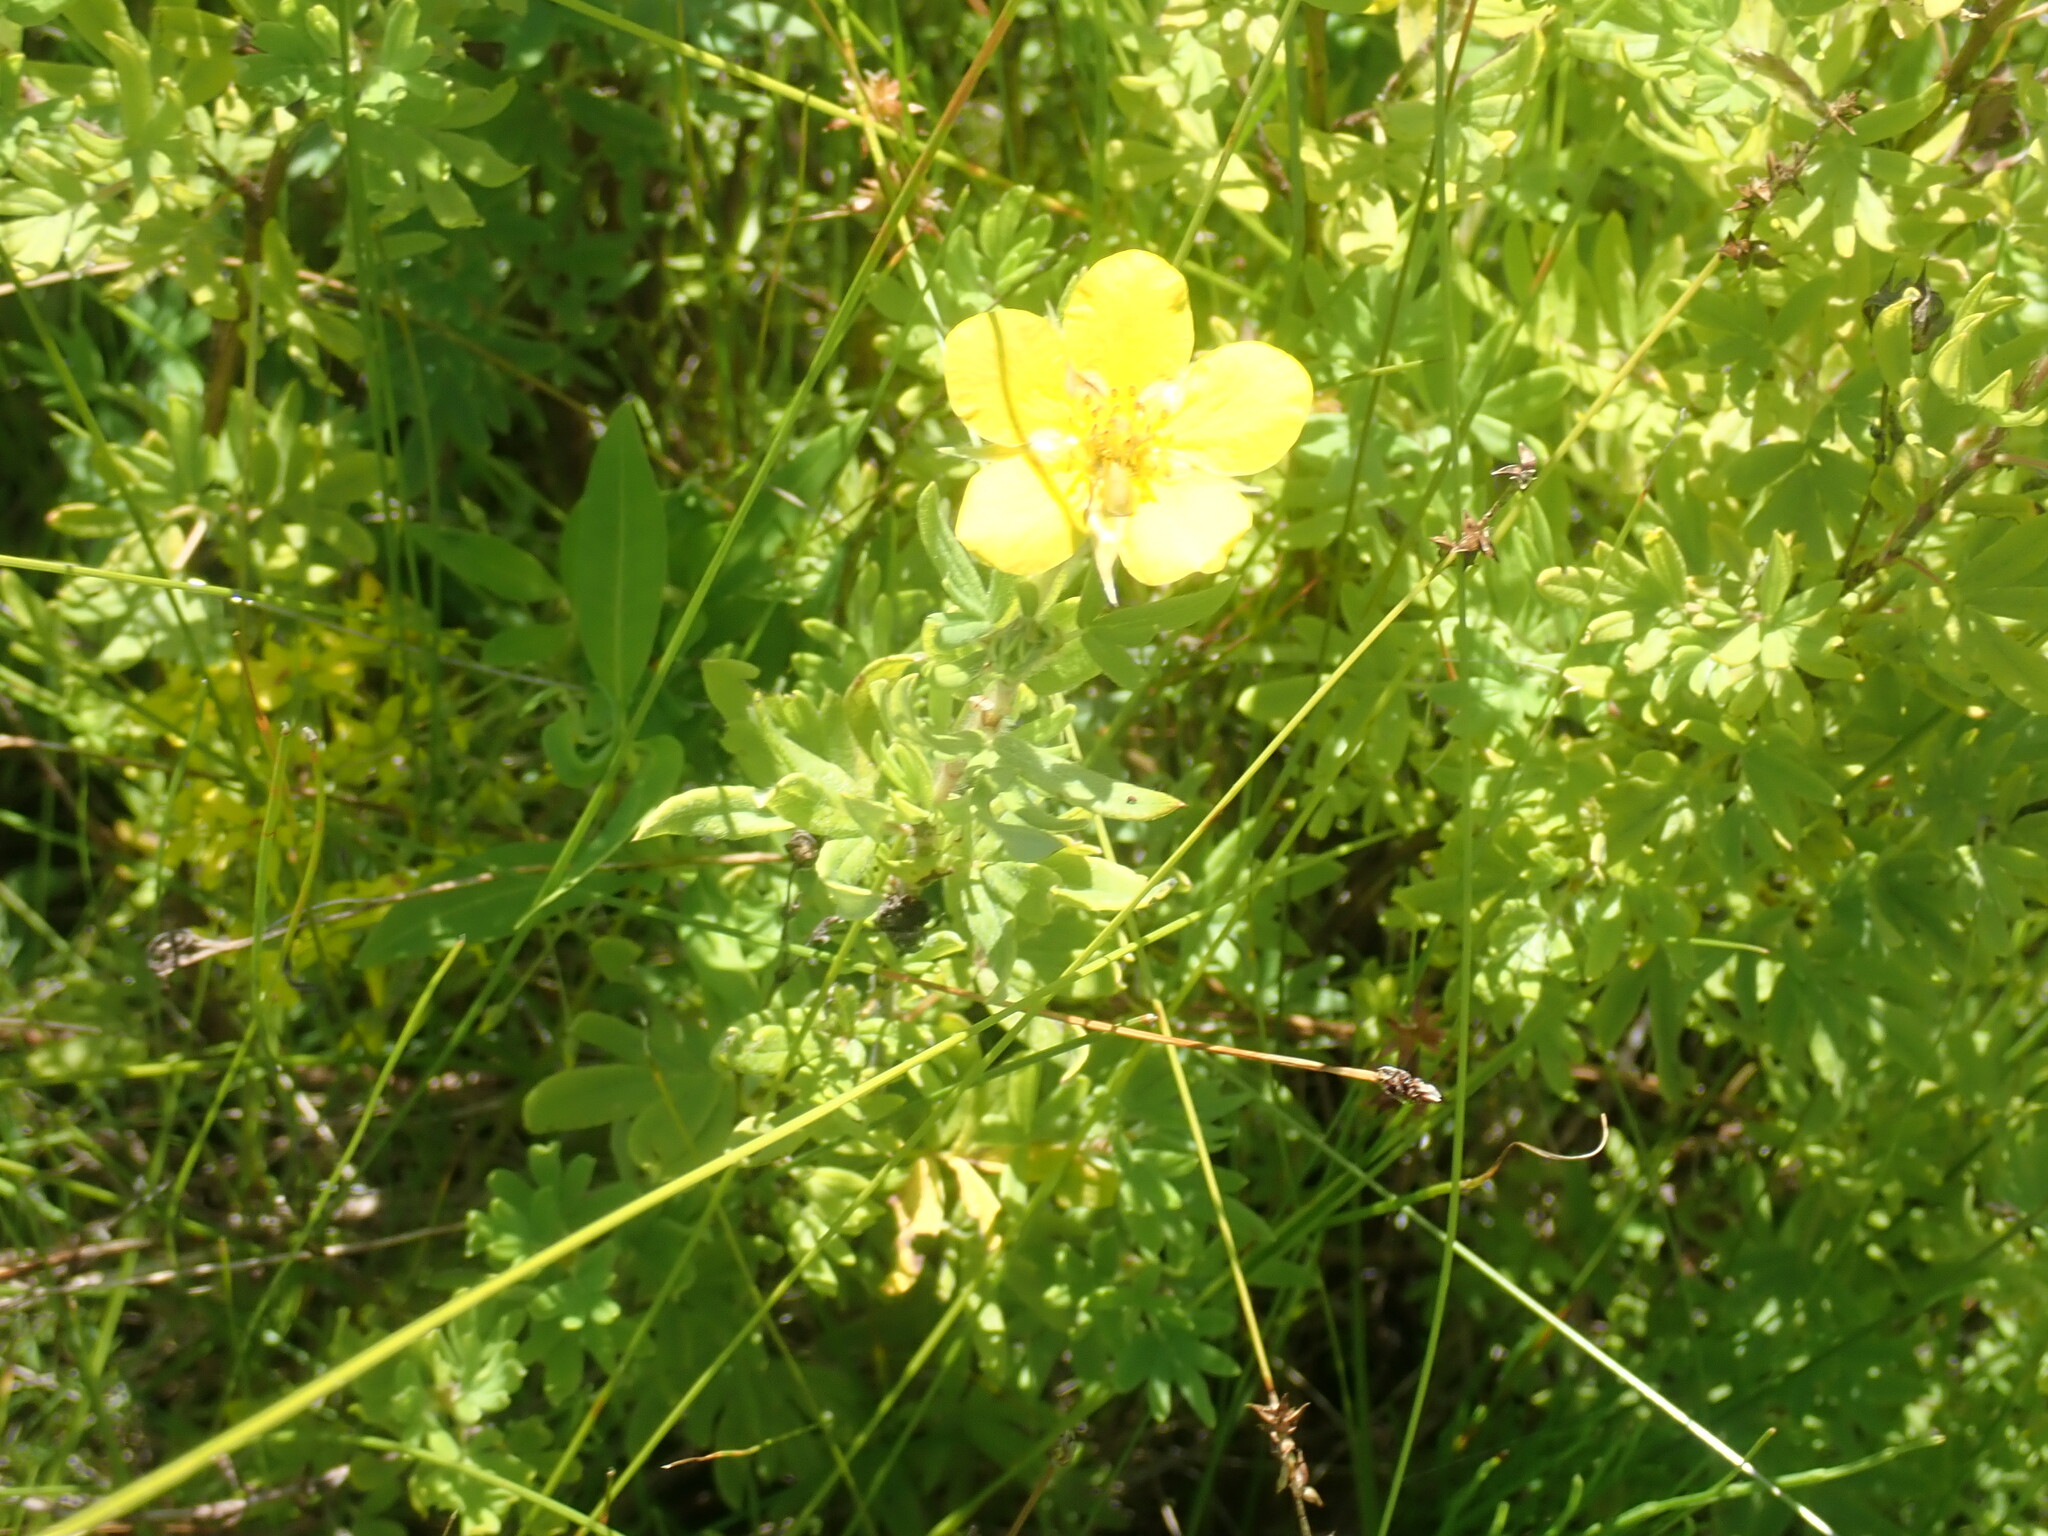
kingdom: Plantae
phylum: Tracheophyta
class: Magnoliopsida
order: Rosales
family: Rosaceae
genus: Dasiphora
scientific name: Dasiphora fruticosa
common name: Shrubby cinquefoil
